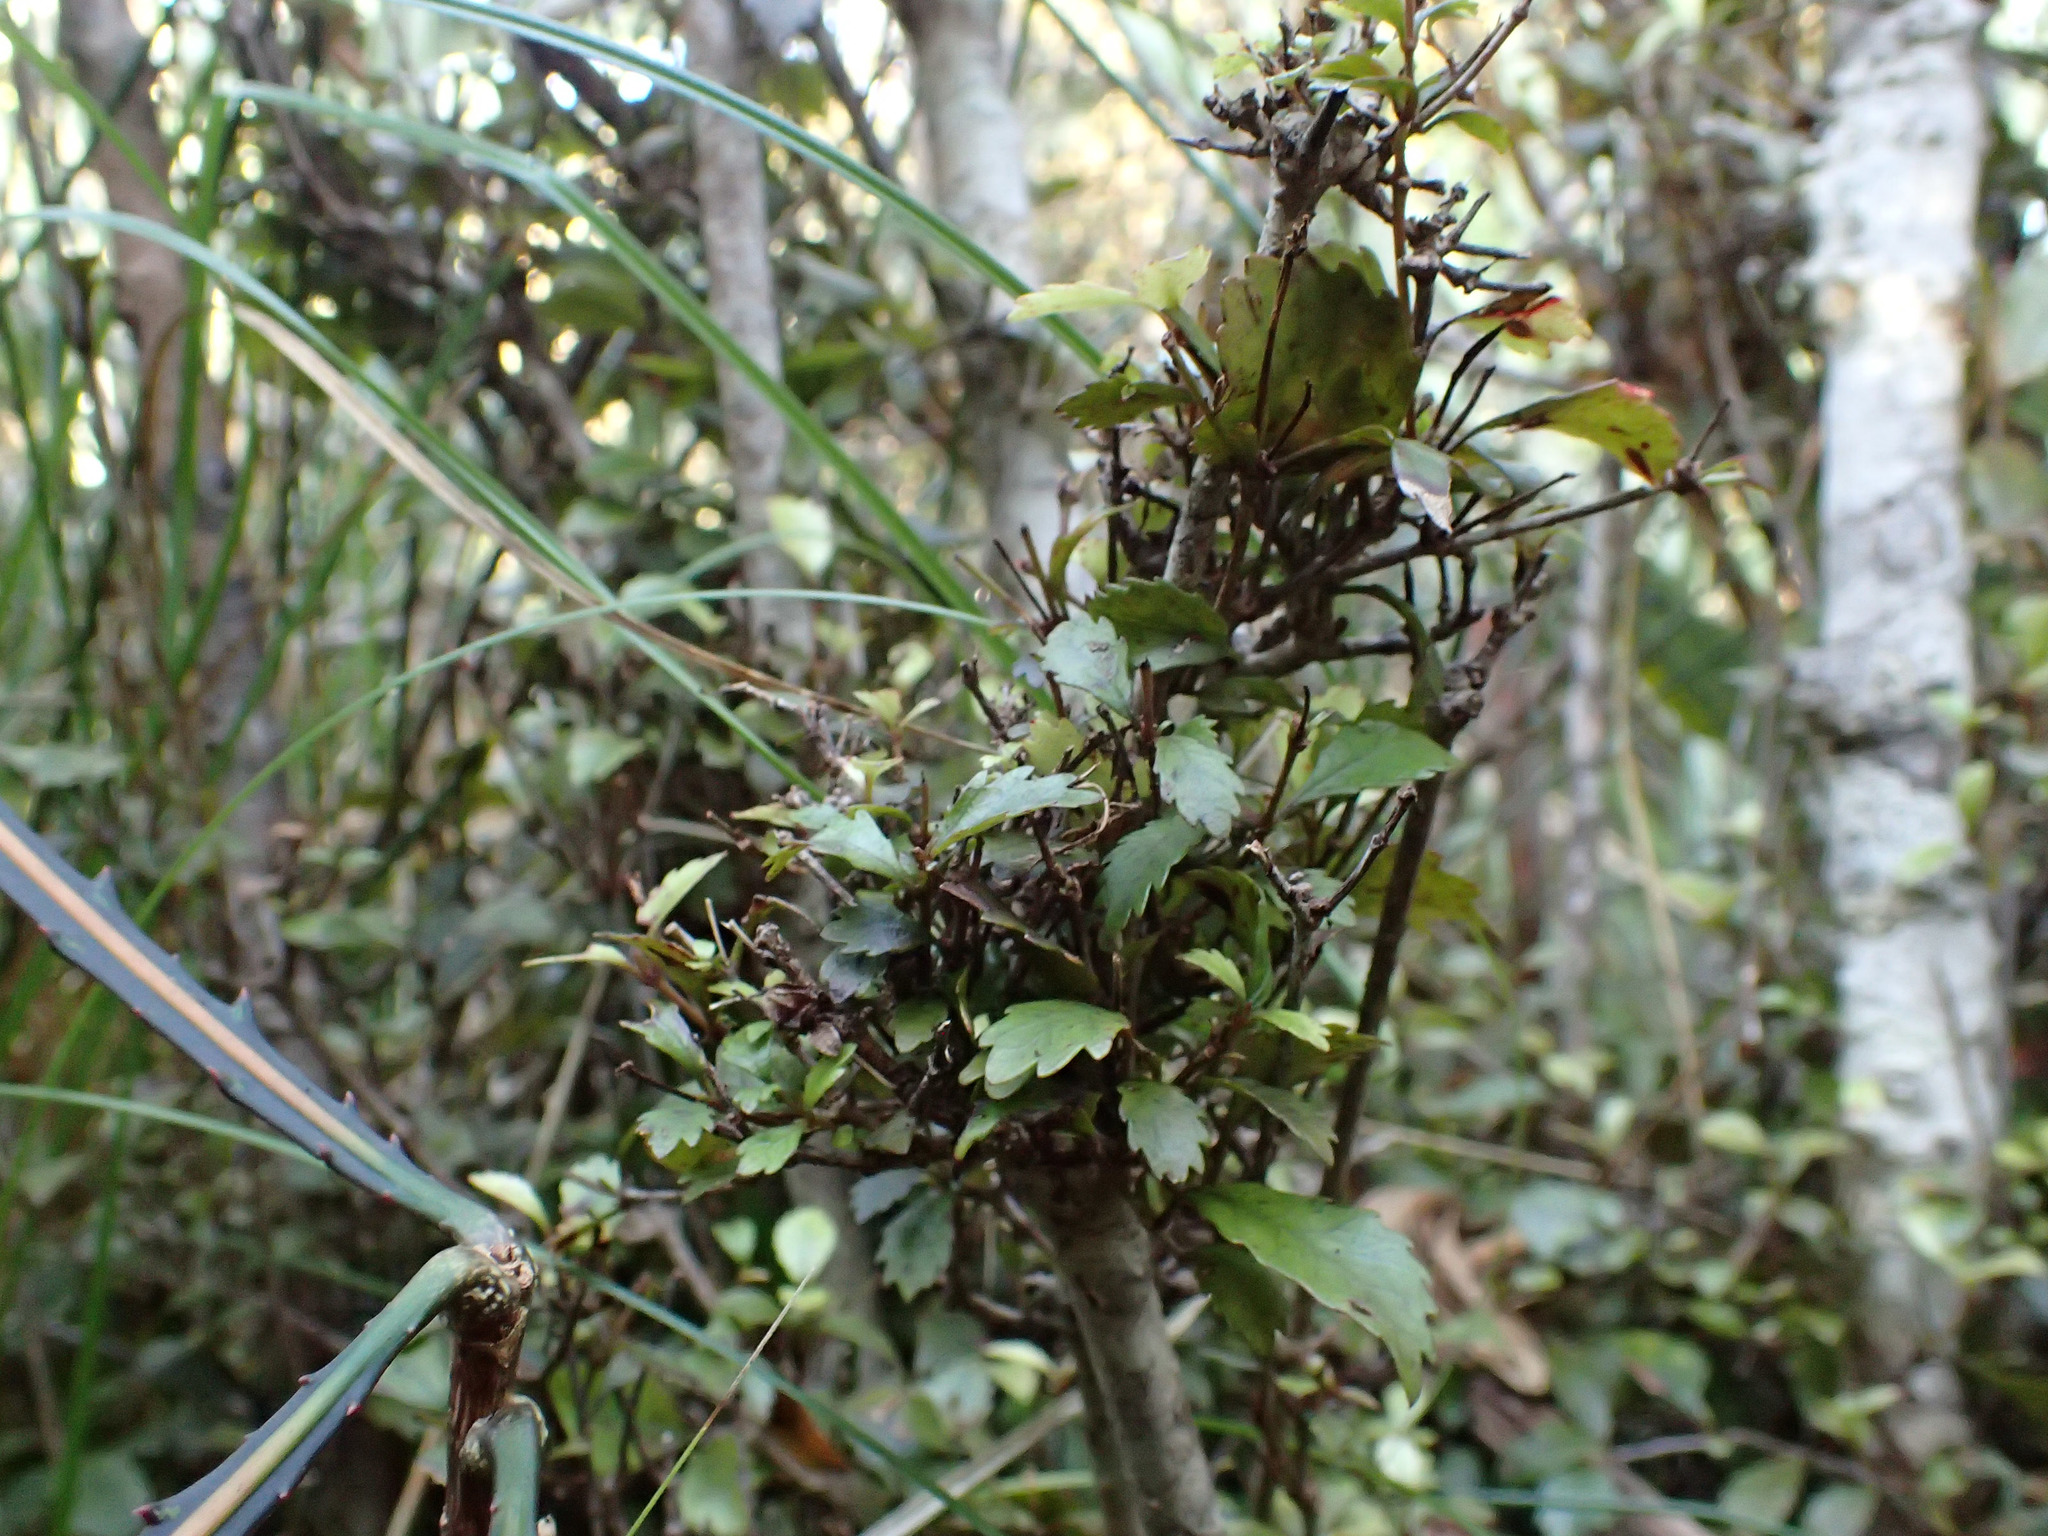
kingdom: Plantae
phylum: Tracheophyta
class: Magnoliopsida
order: Oxalidales
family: Cunoniaceae
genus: Pterophylla
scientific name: Pterophylla racemosa
